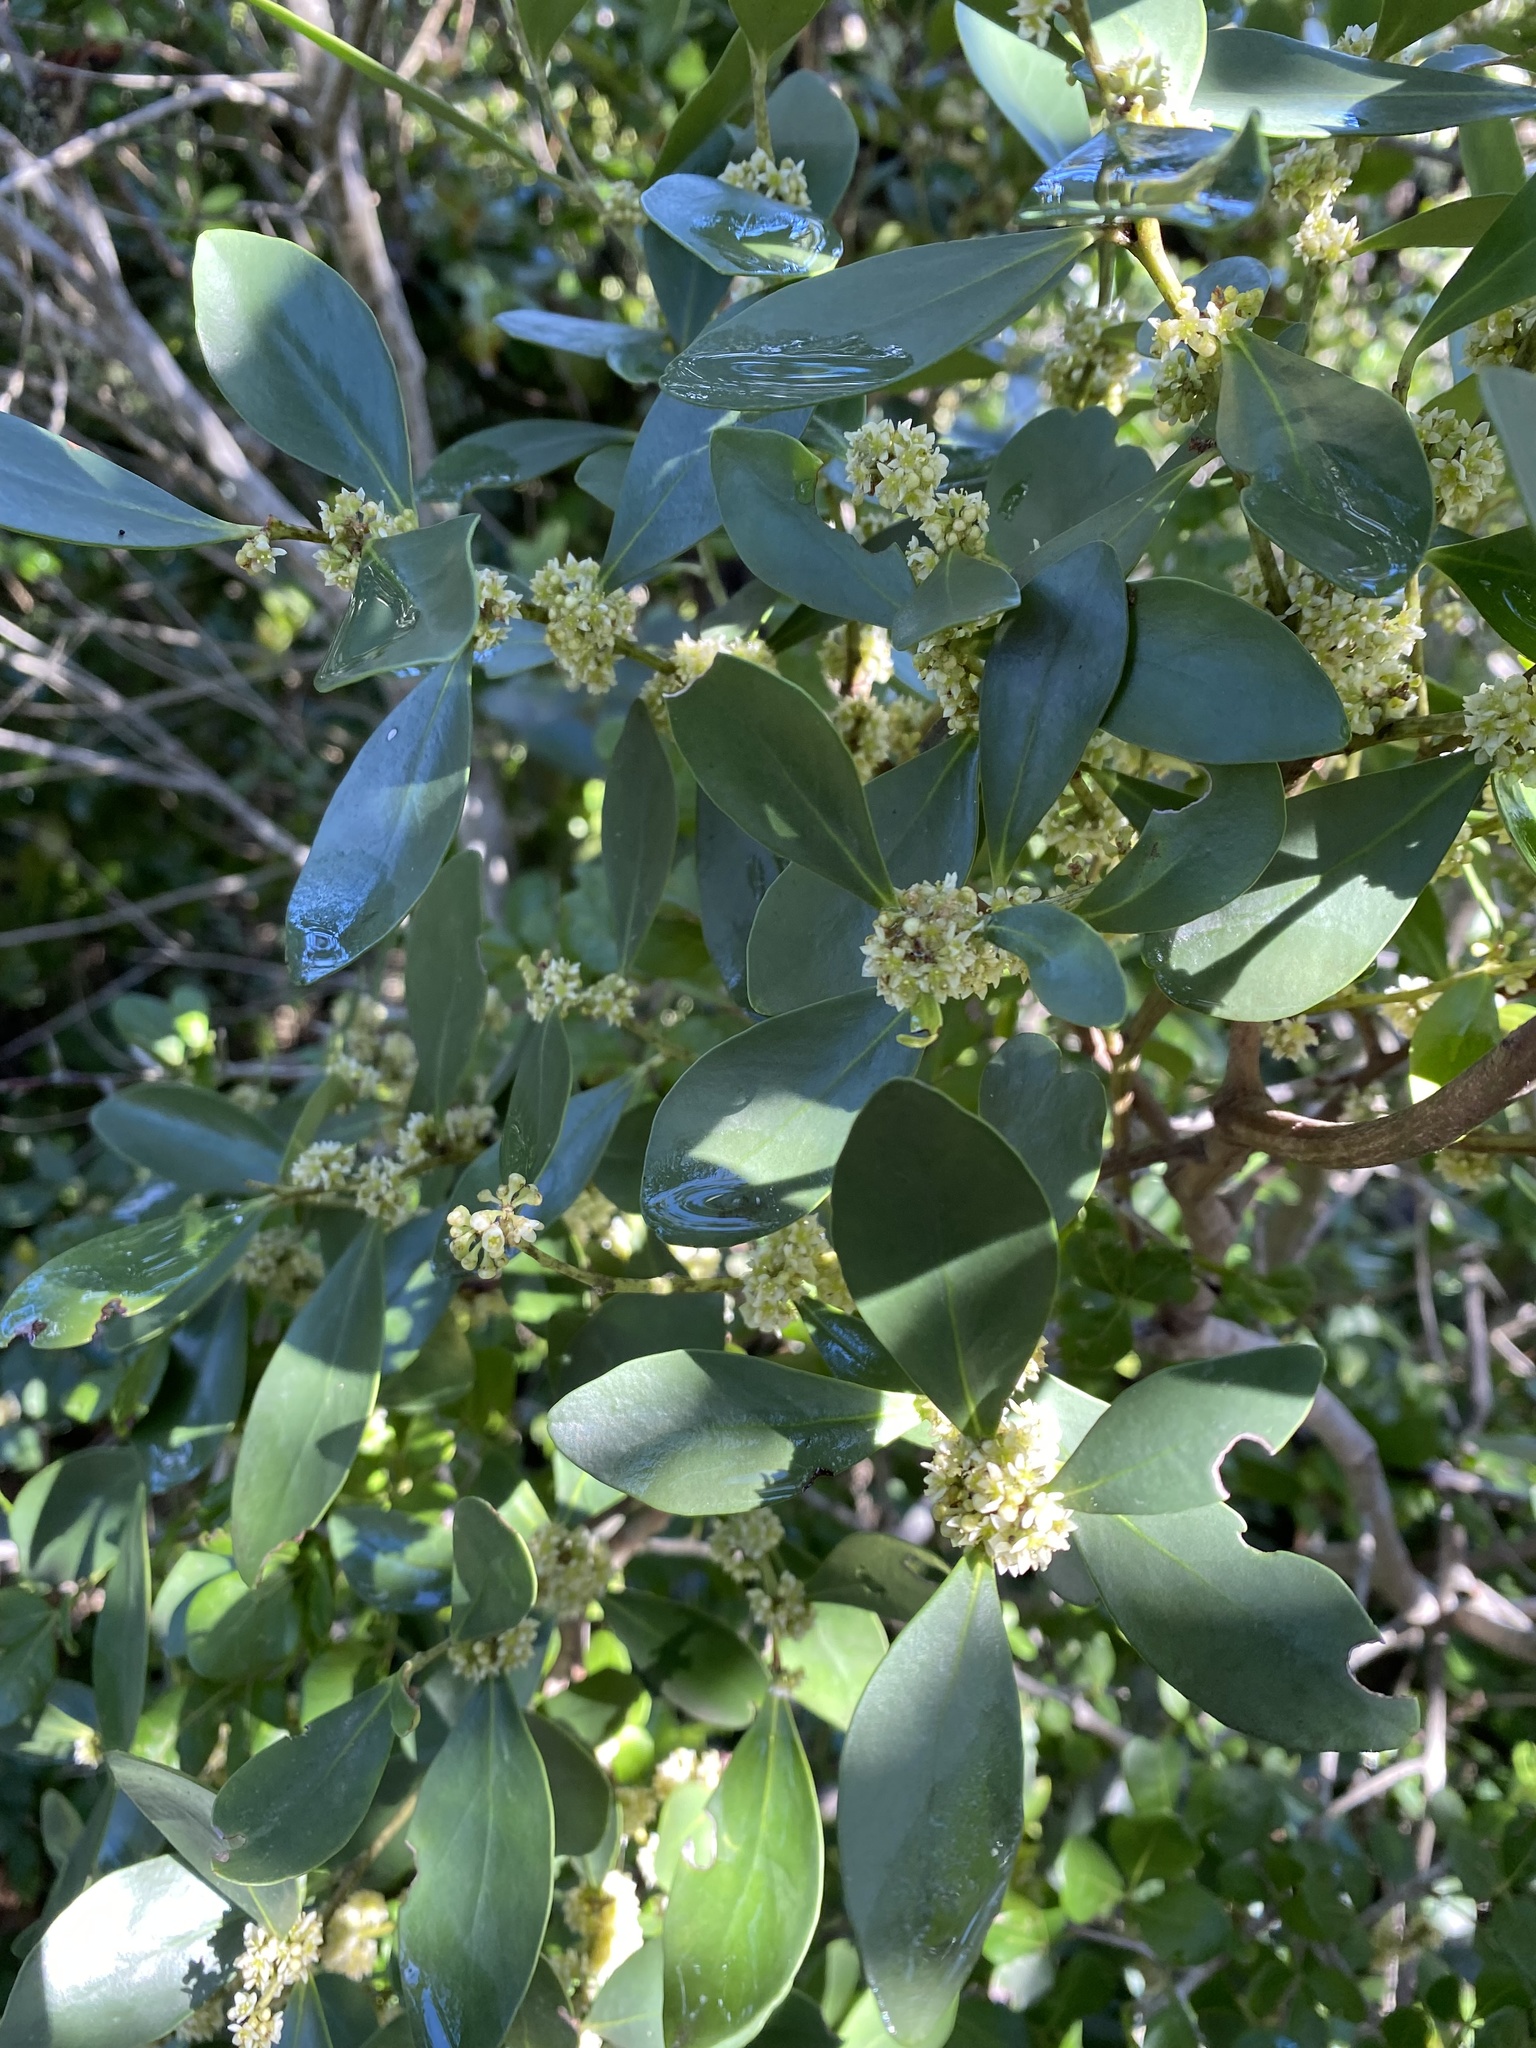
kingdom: Plantae
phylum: Tracheophyta
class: Magnoliopsida
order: Celastrales
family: Celastraceae
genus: Pterocelastrus
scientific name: Pterocelastrus tricuspidatus
